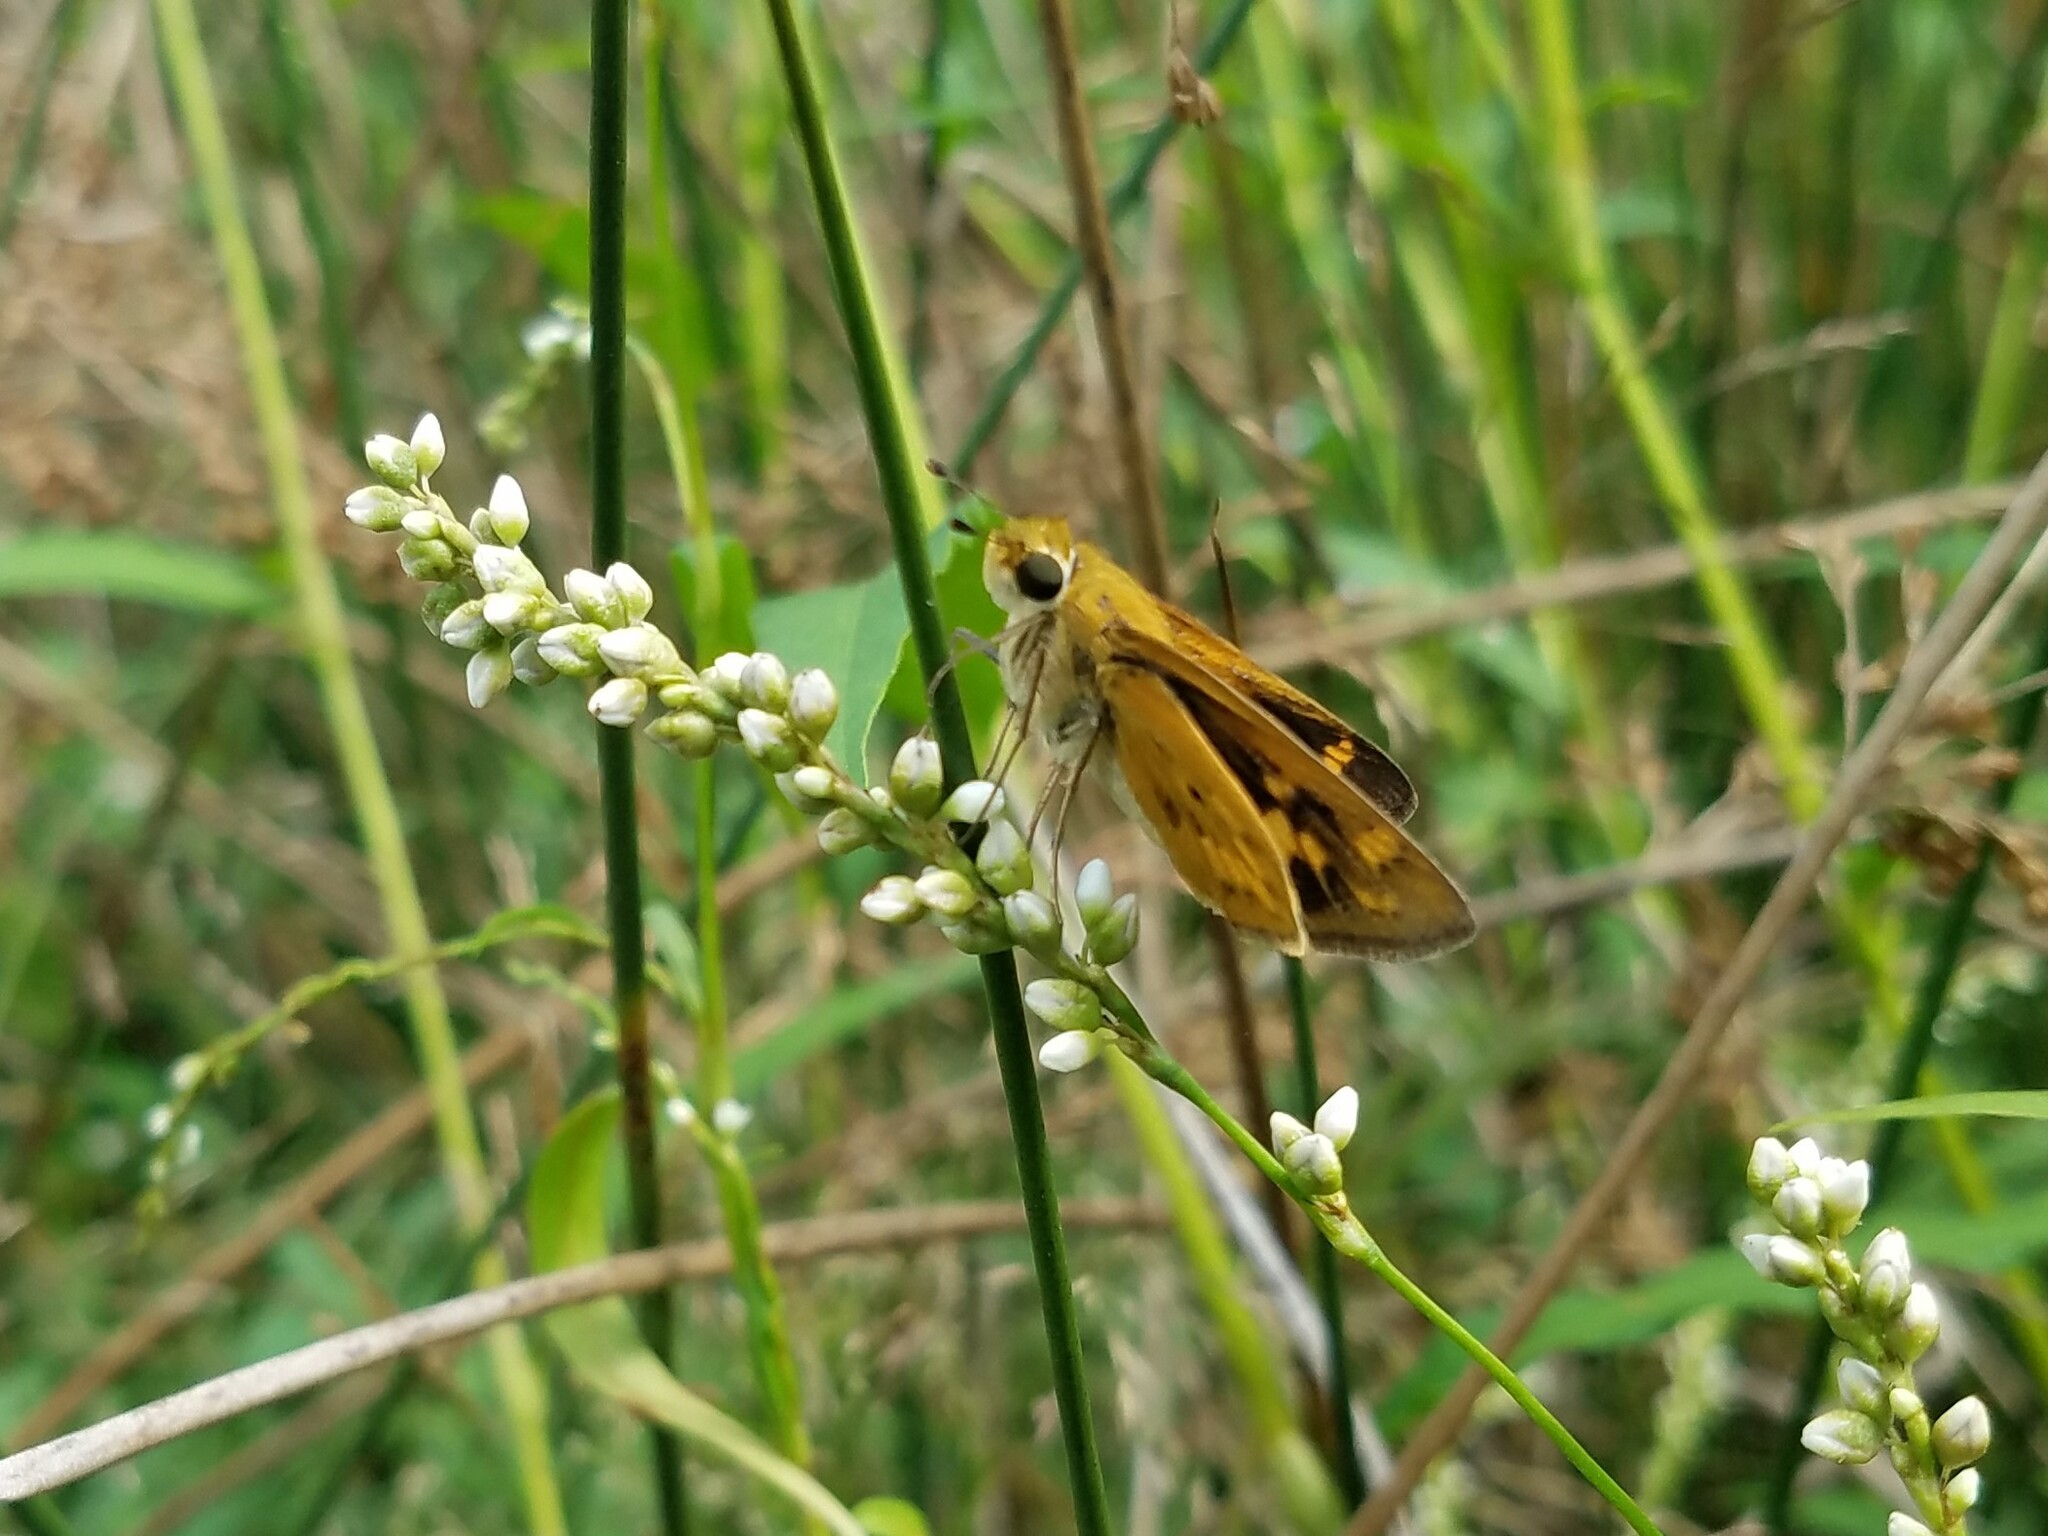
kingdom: Animalia
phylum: Arthropoda
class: Insecta
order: Lepidoptera
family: Hesperiidae
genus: Hylephila
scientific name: Hylephila phyleus
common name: Fiery skipper
